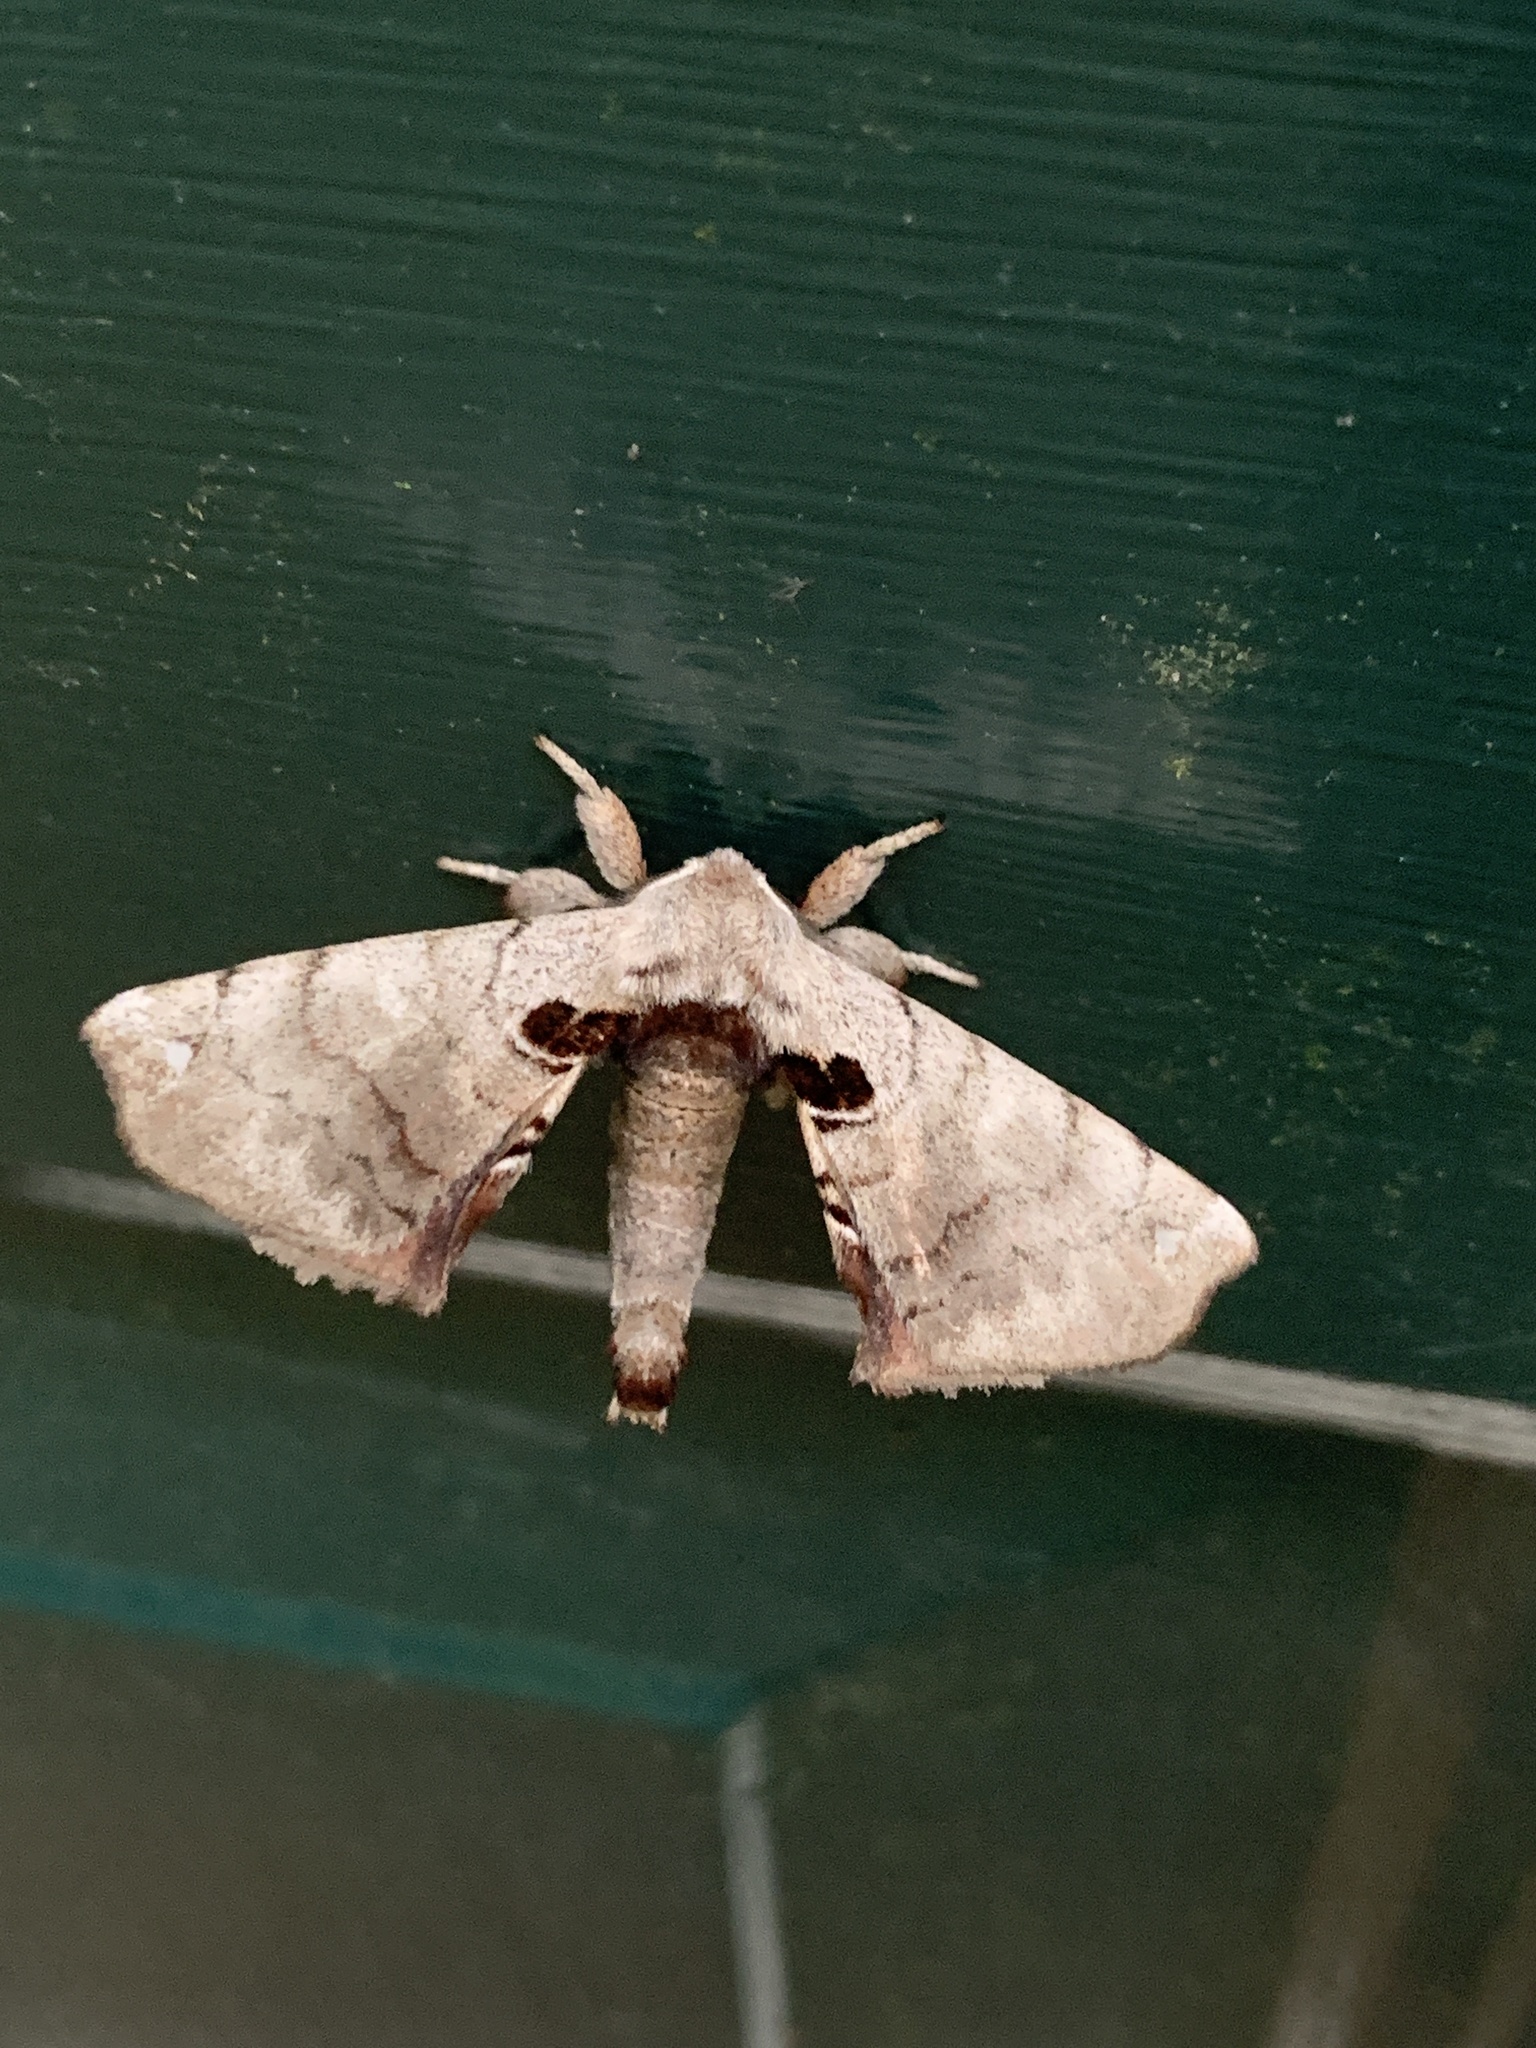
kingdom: Animalia
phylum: Arthropoda
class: Insecta
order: Lepidoptera
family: Apatelodidae
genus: Hygrochroa
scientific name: Hygrochroa Apatelodes torrefacta
